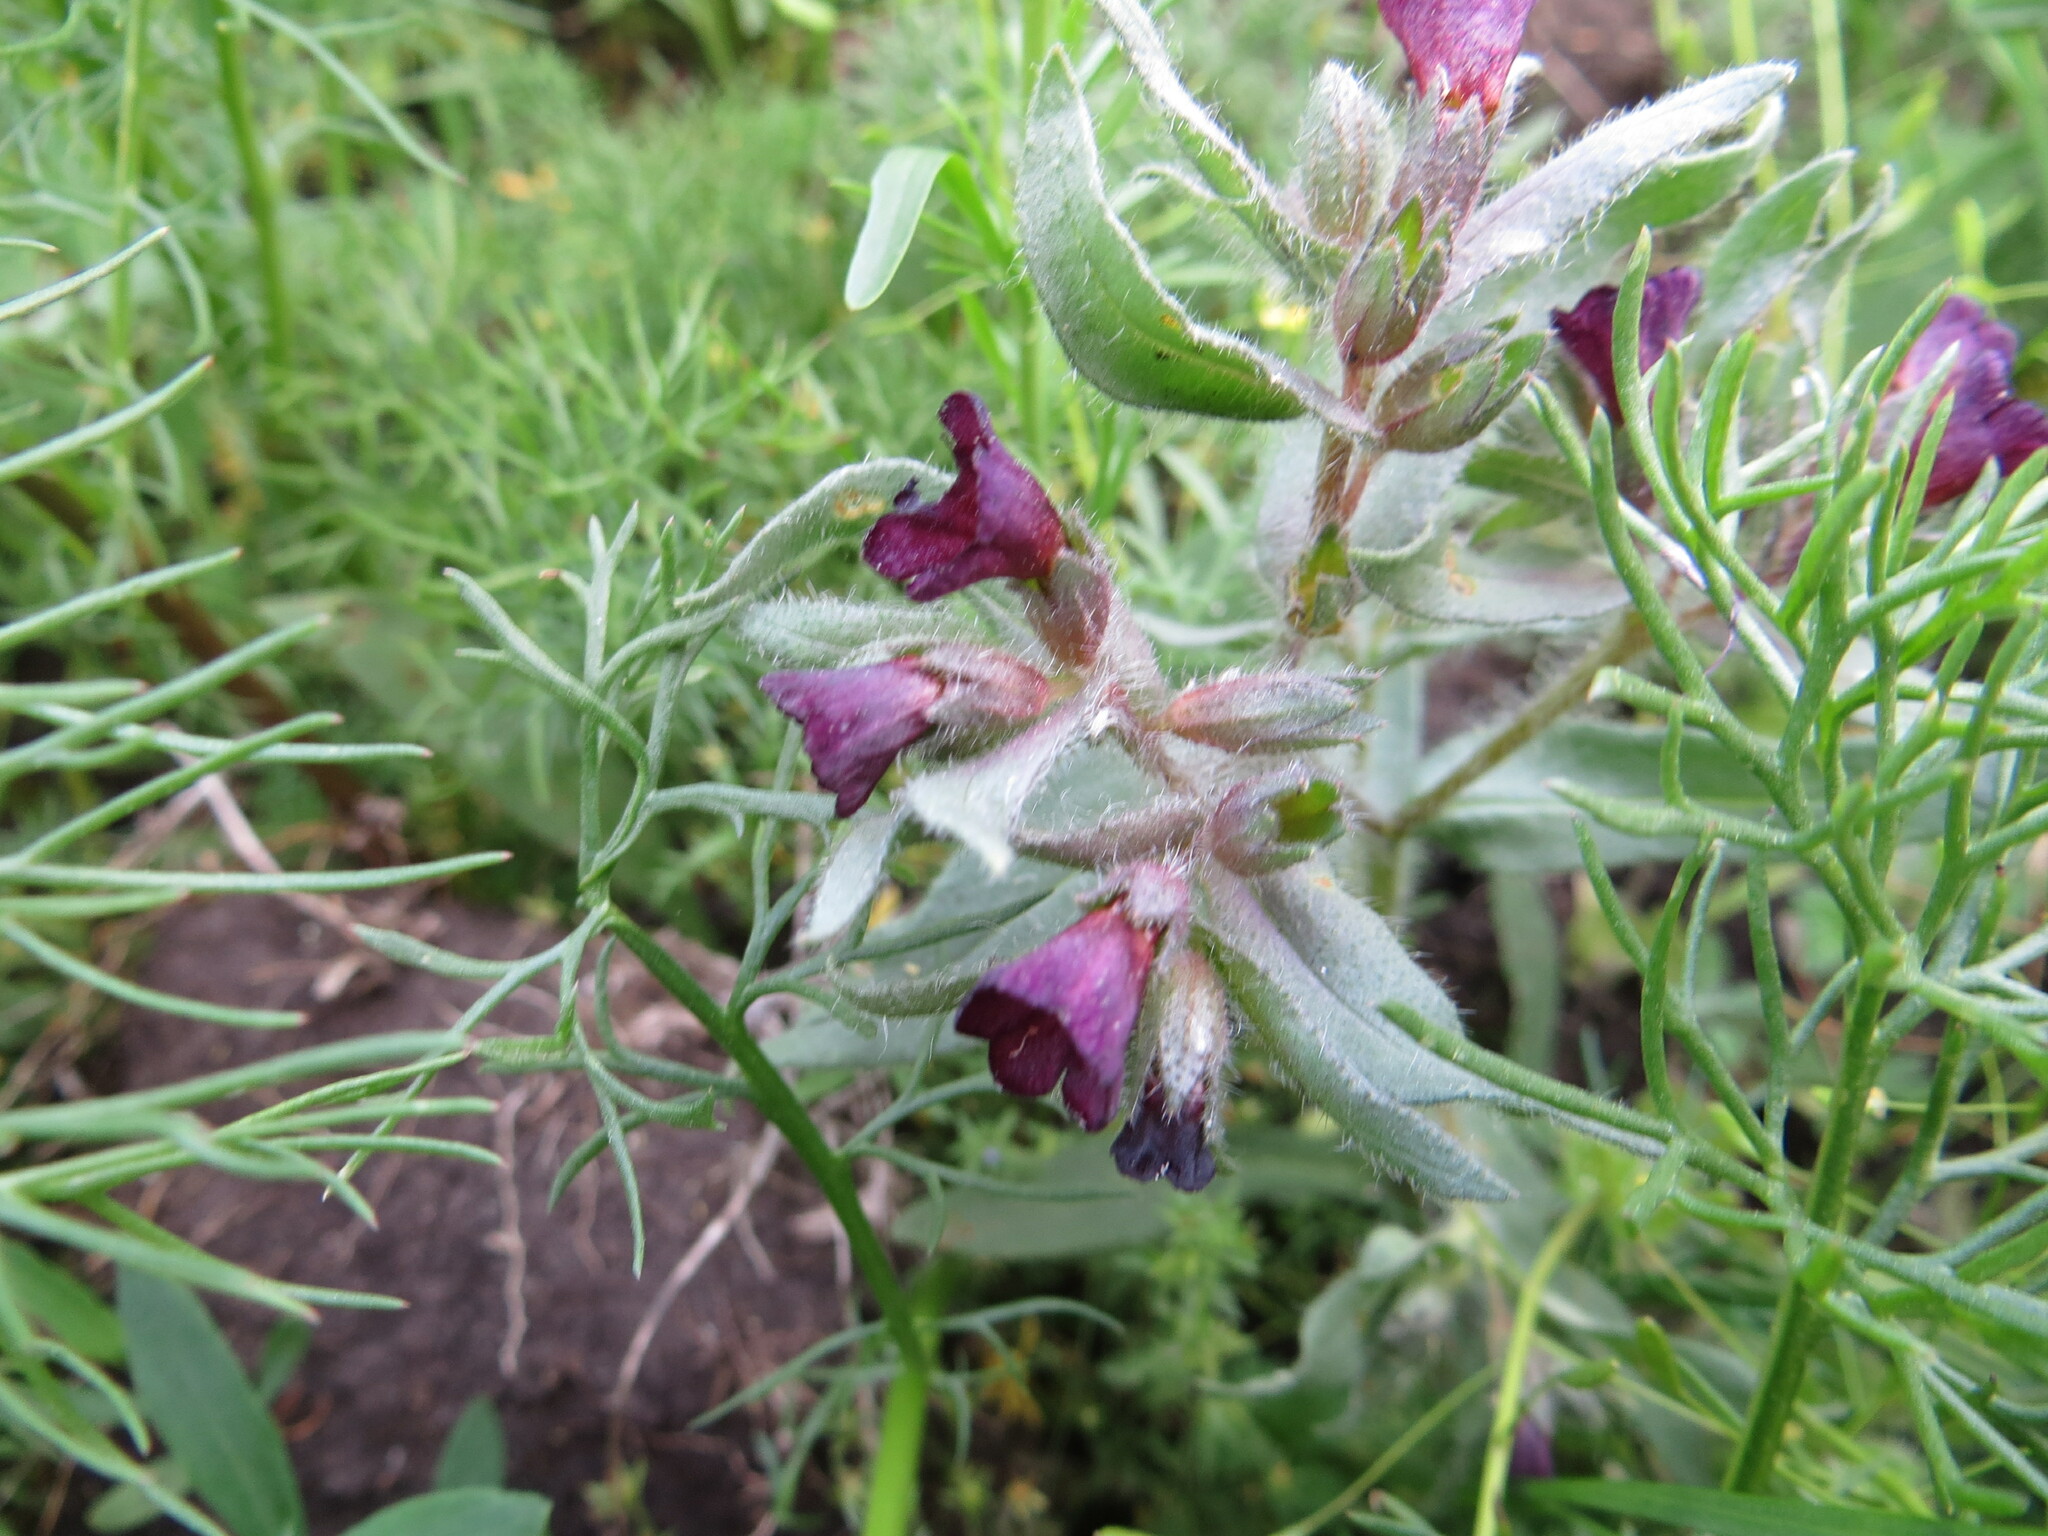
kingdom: Plantae
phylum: Tracheophyta
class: Magnoliopsida
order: Boraginales
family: Boraginaceae
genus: Nonea
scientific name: Nonea pulla
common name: Brown nonea
